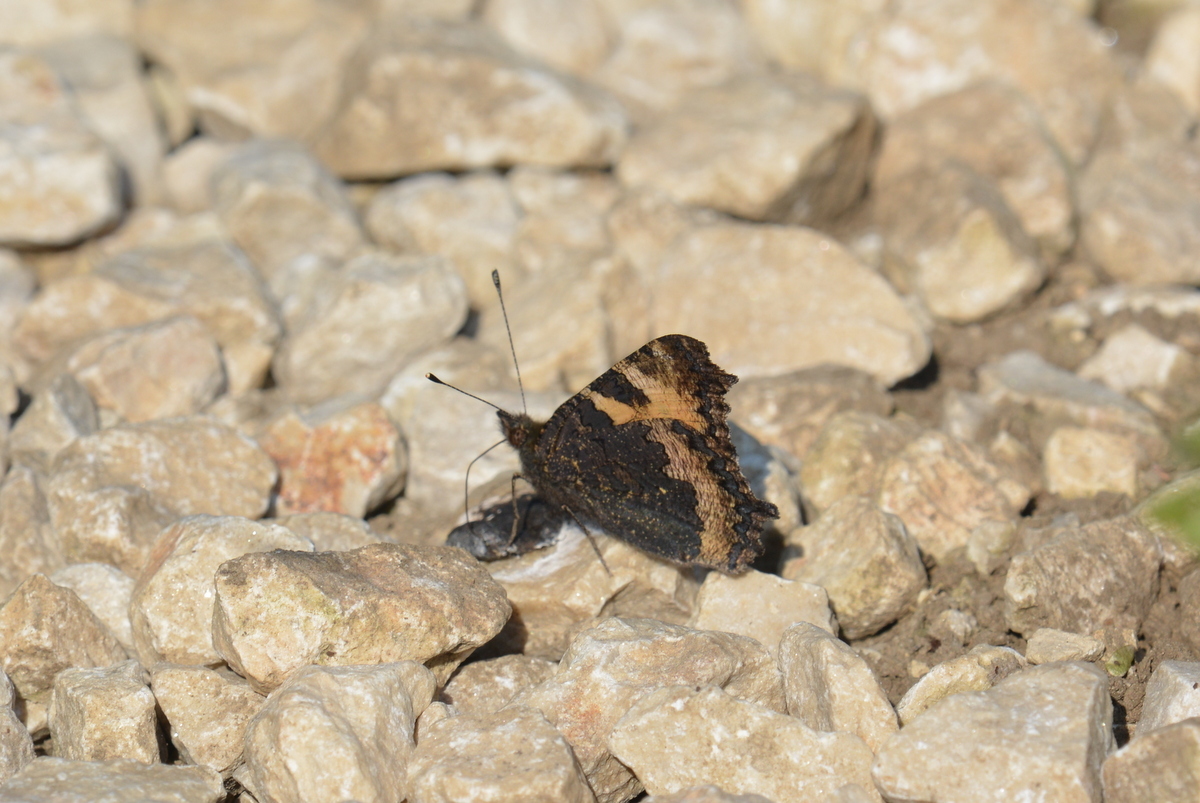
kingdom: Animalia
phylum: Arthropoda
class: Insecta
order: Lepidoptera
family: Nymphalidae
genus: Aglais
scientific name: Aglais urticae
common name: Small tortoiseshell
